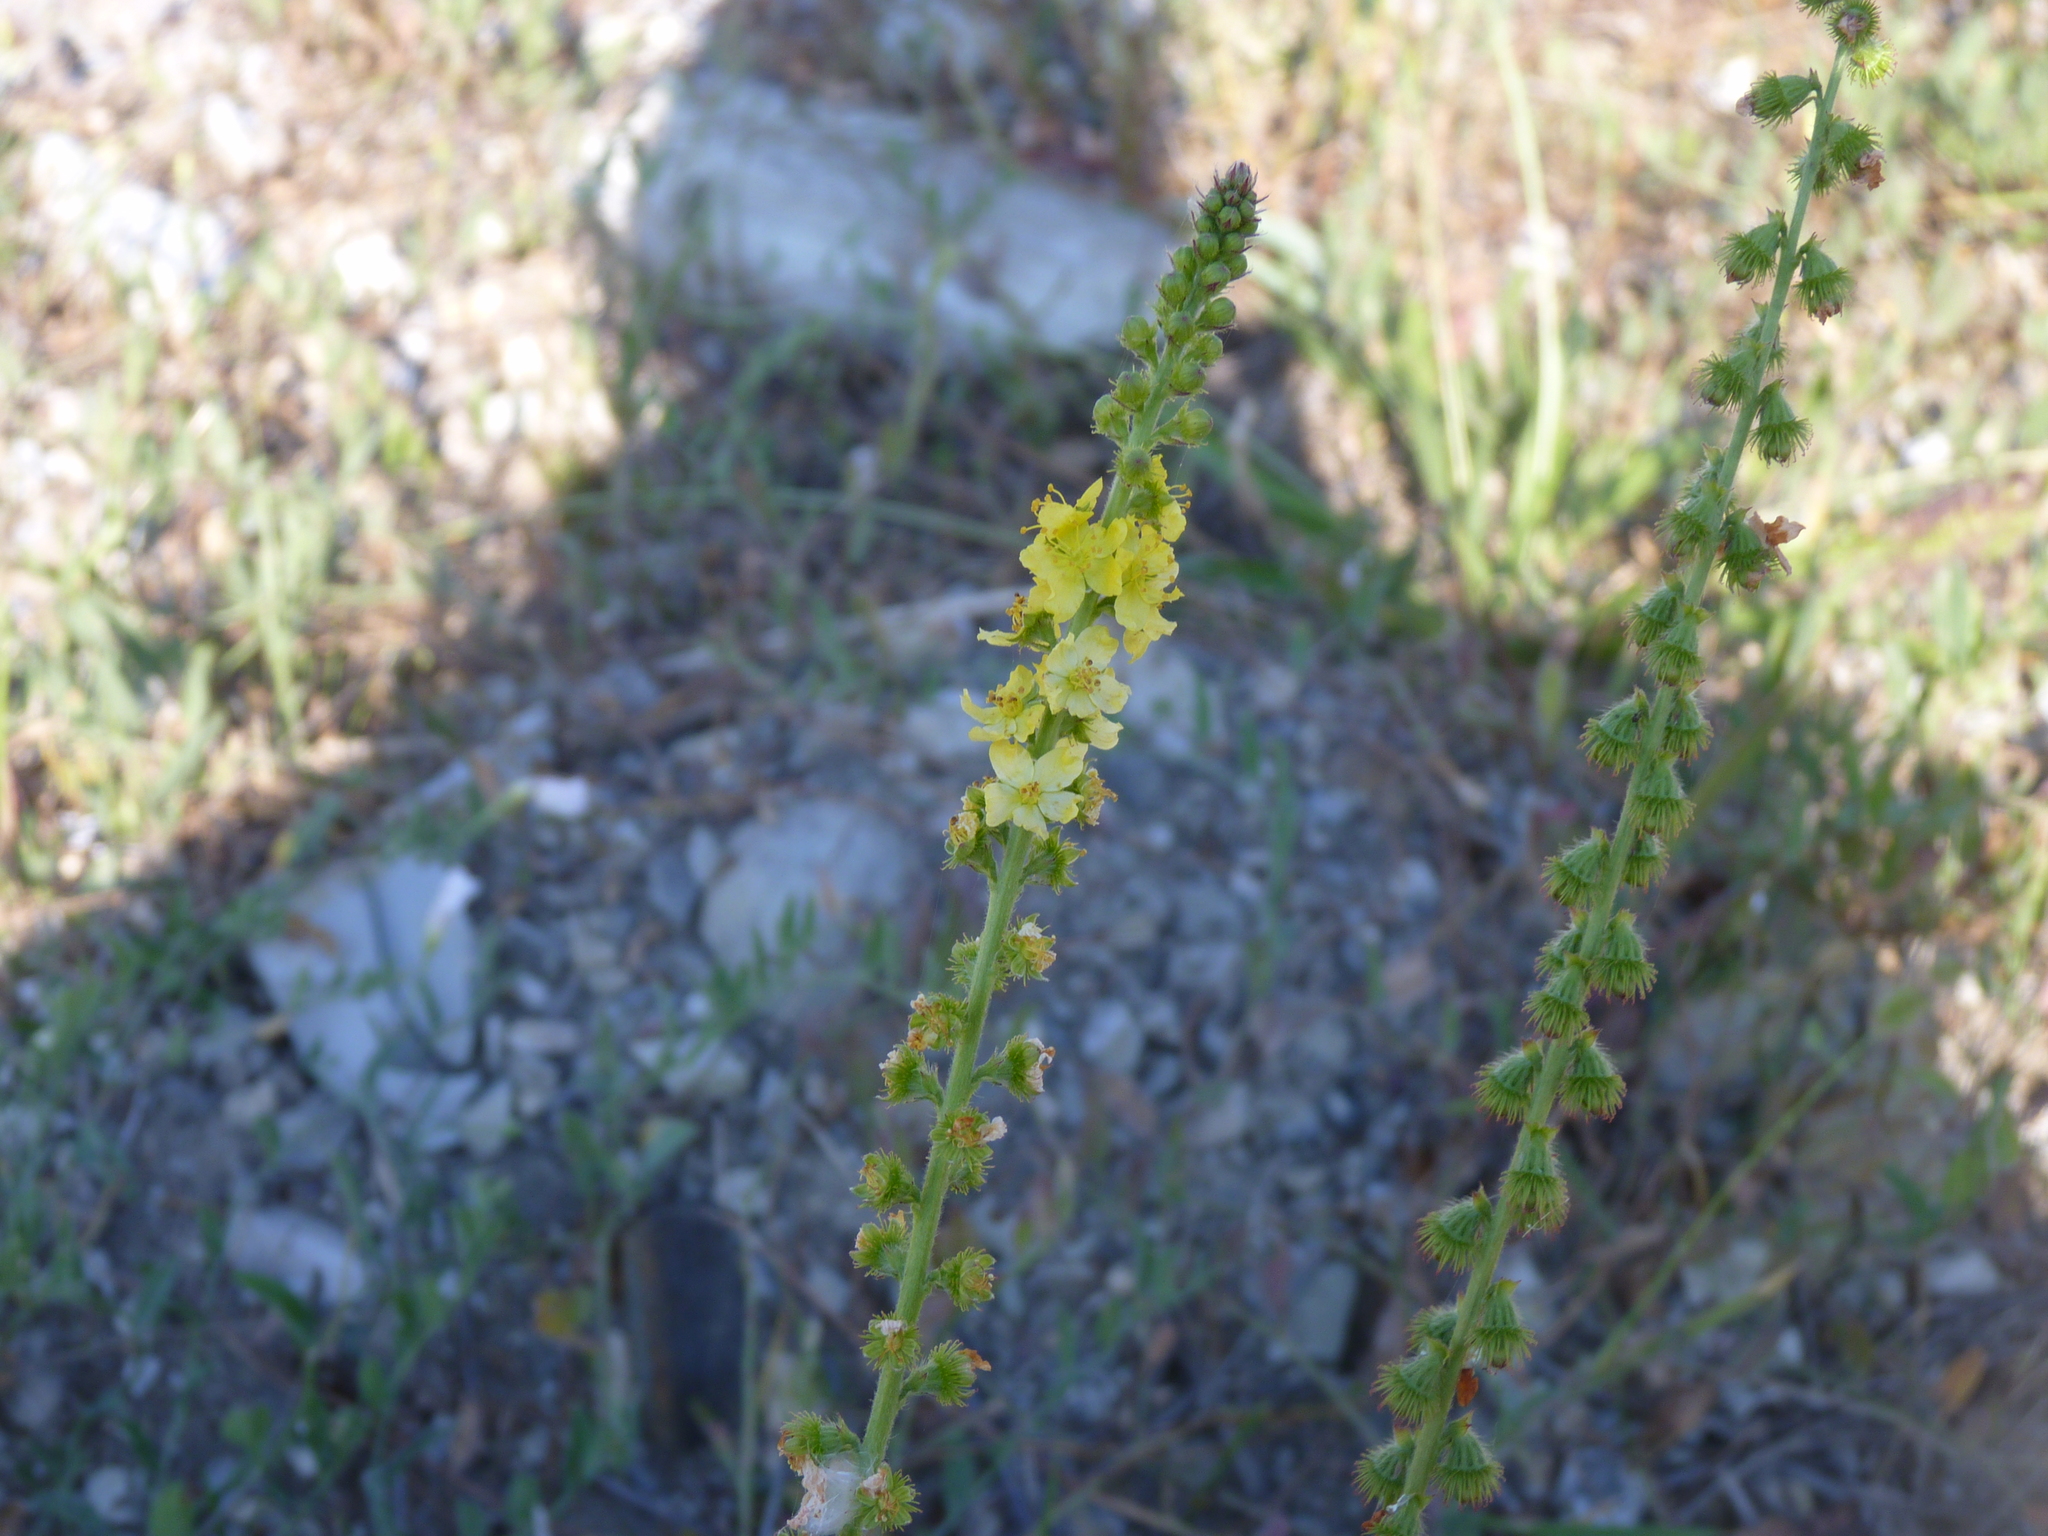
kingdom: Plantae
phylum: Tracheophyta
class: Magnoliopsida
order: Rosales
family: Rosaceae
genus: Agrimonia
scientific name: Agrimonia eupatoria
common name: Agrimony
